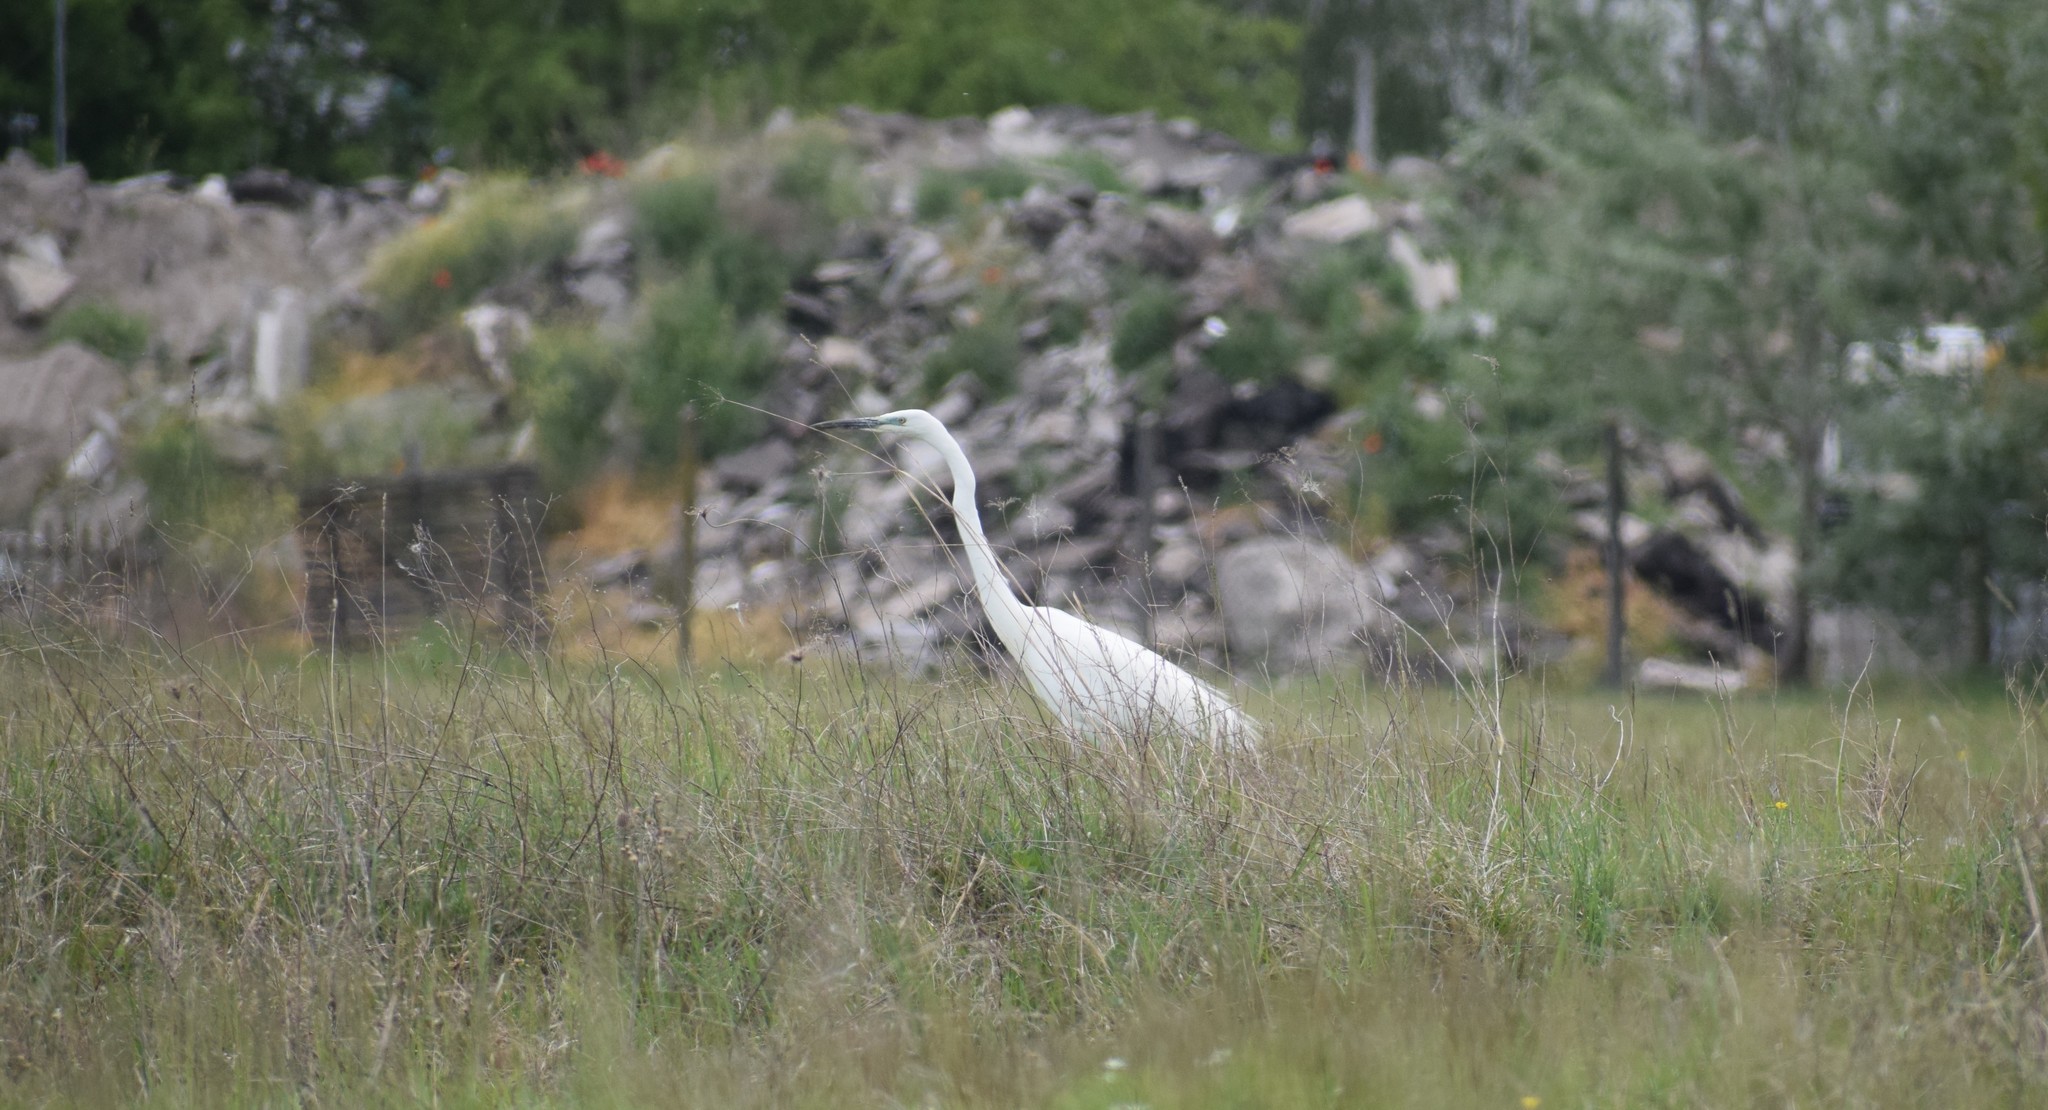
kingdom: Animalia
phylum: Chordata
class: Aves
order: Pelecaniformes
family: Ardeidae
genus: Ardea
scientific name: Ardea alba
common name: Great egret
